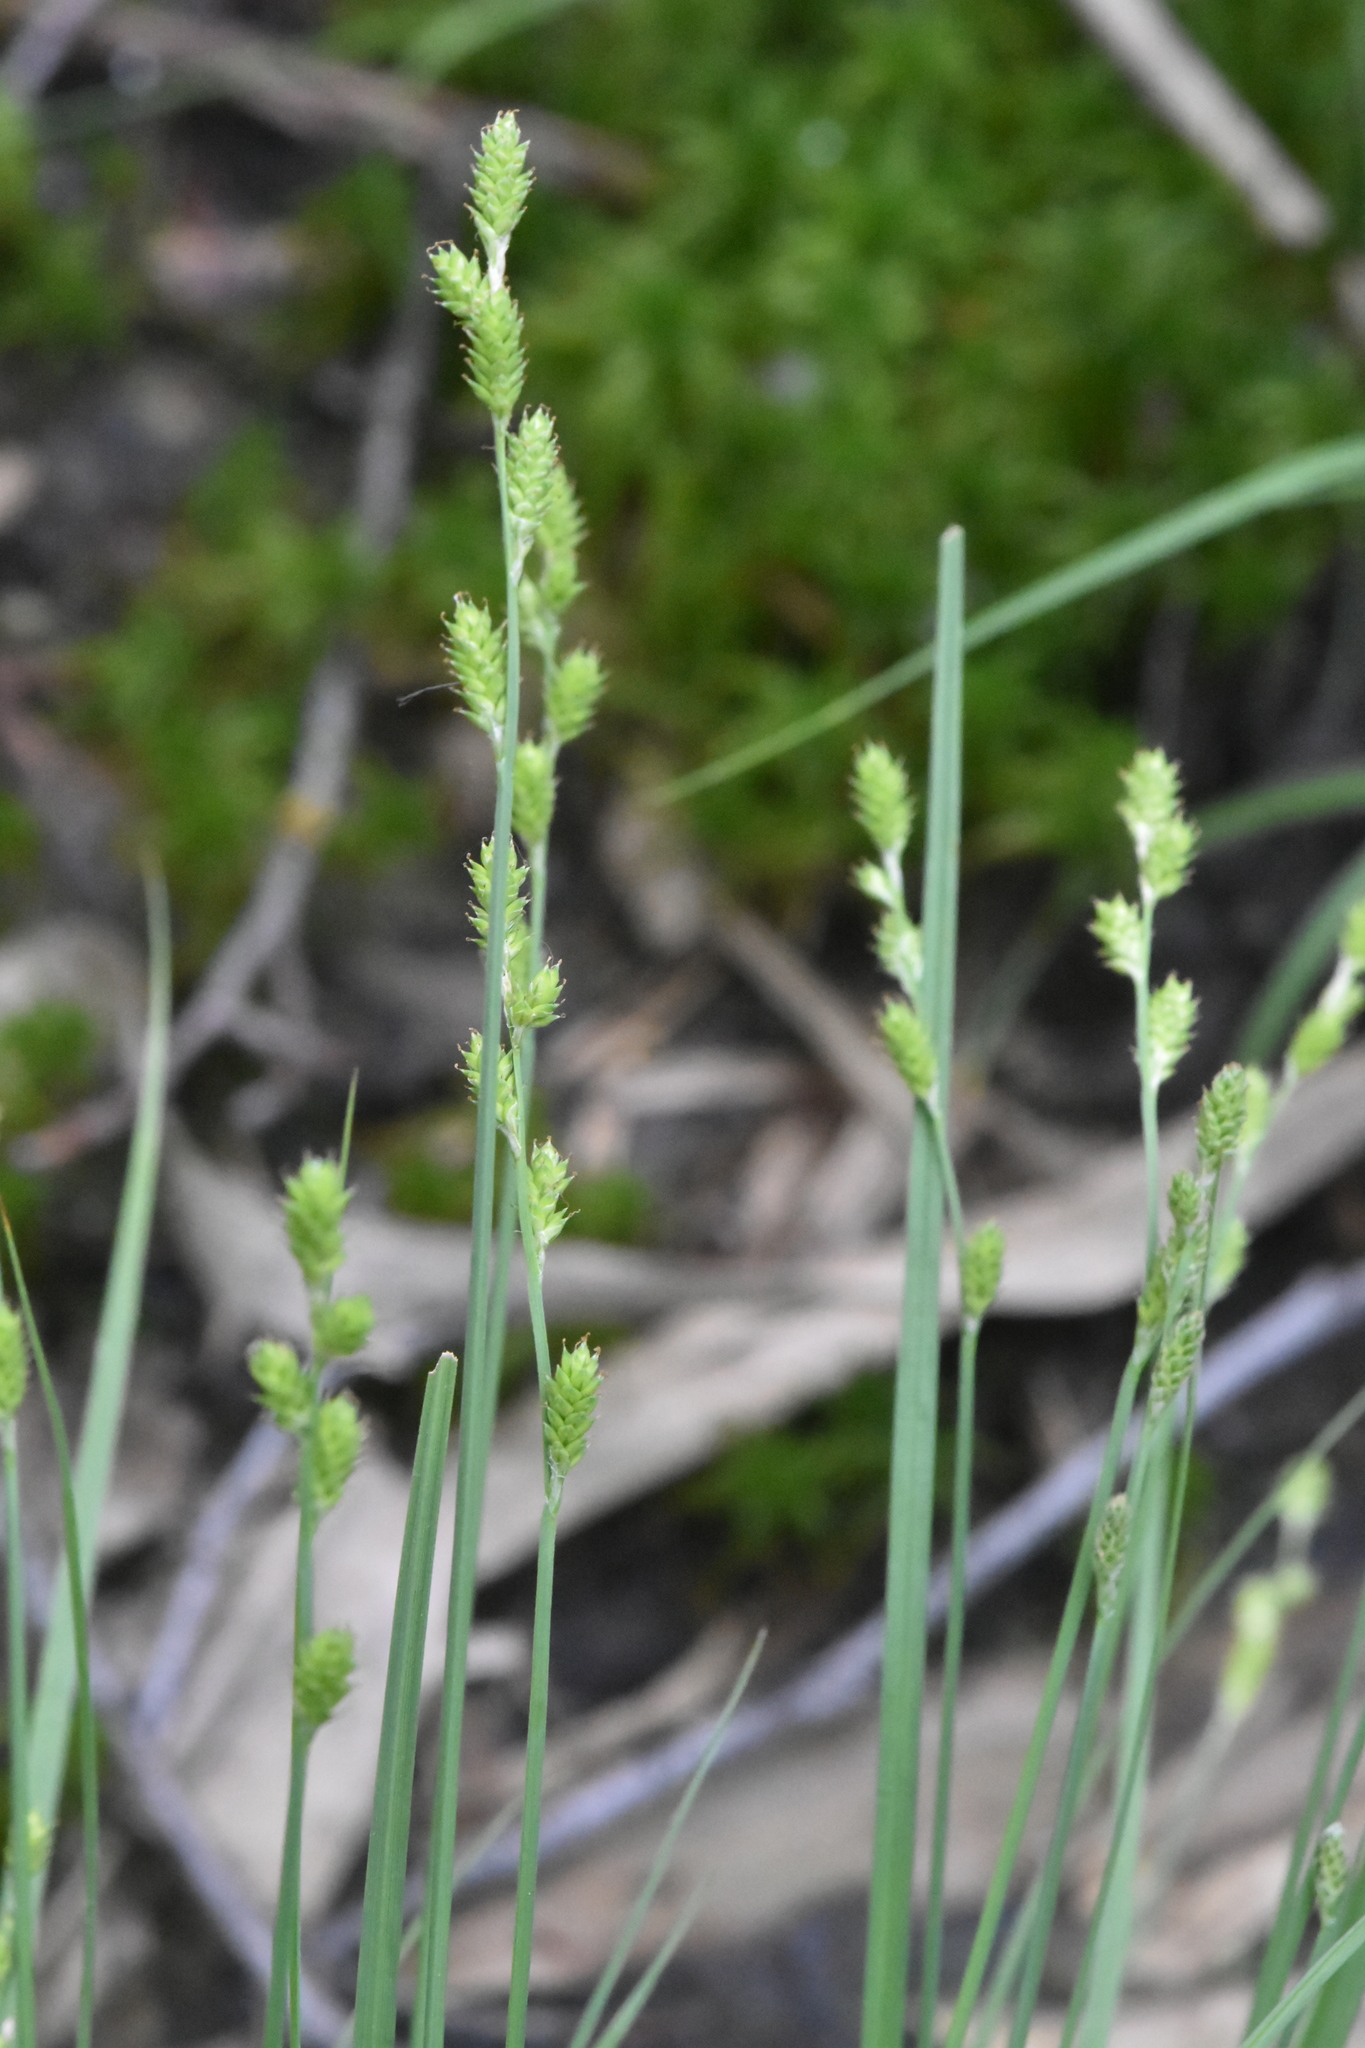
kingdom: Plantae
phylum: Tracheophyta
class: Liliopsida
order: Poales
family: Cyperaceae
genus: Carex
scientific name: Carex canescens
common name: White sedge
